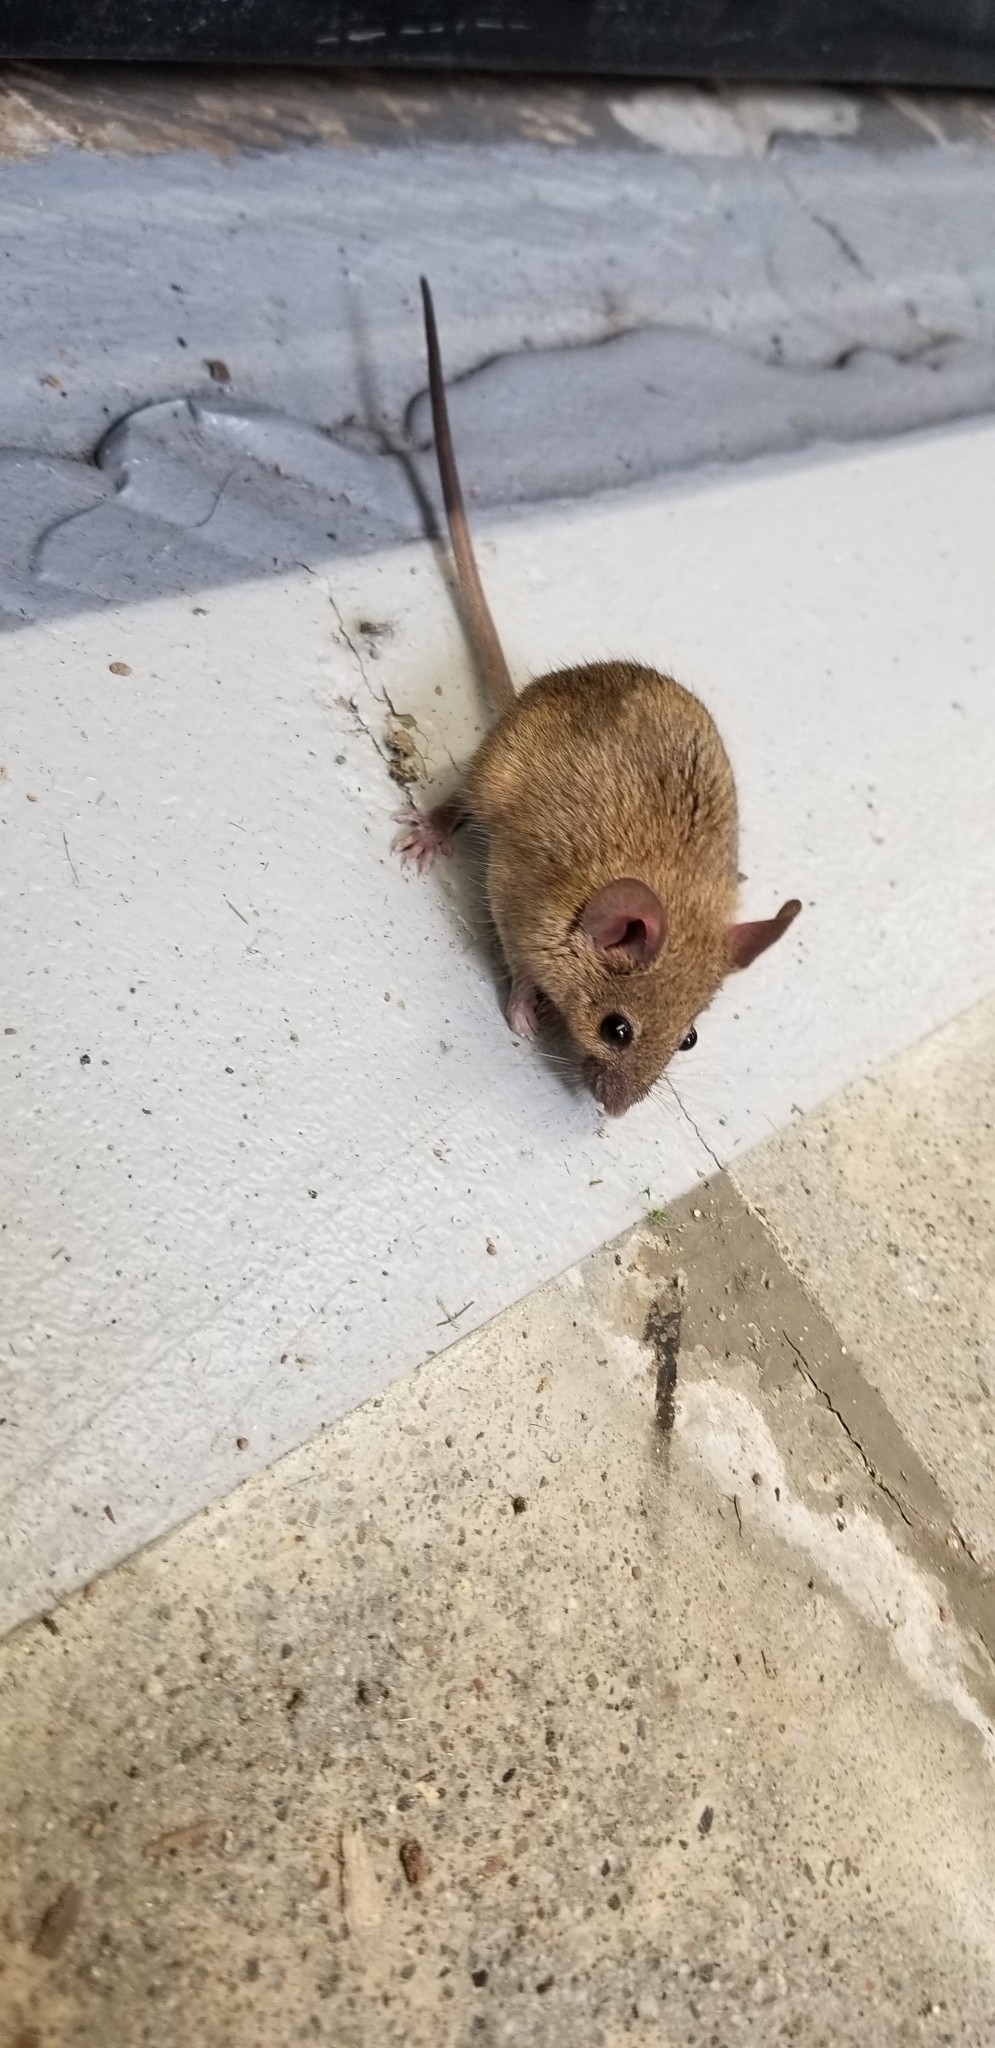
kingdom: Animalia
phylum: Chordata
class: Mammalia
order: Rodentia
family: Muridae
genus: Mus
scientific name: Mus musculus
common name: House mouse
